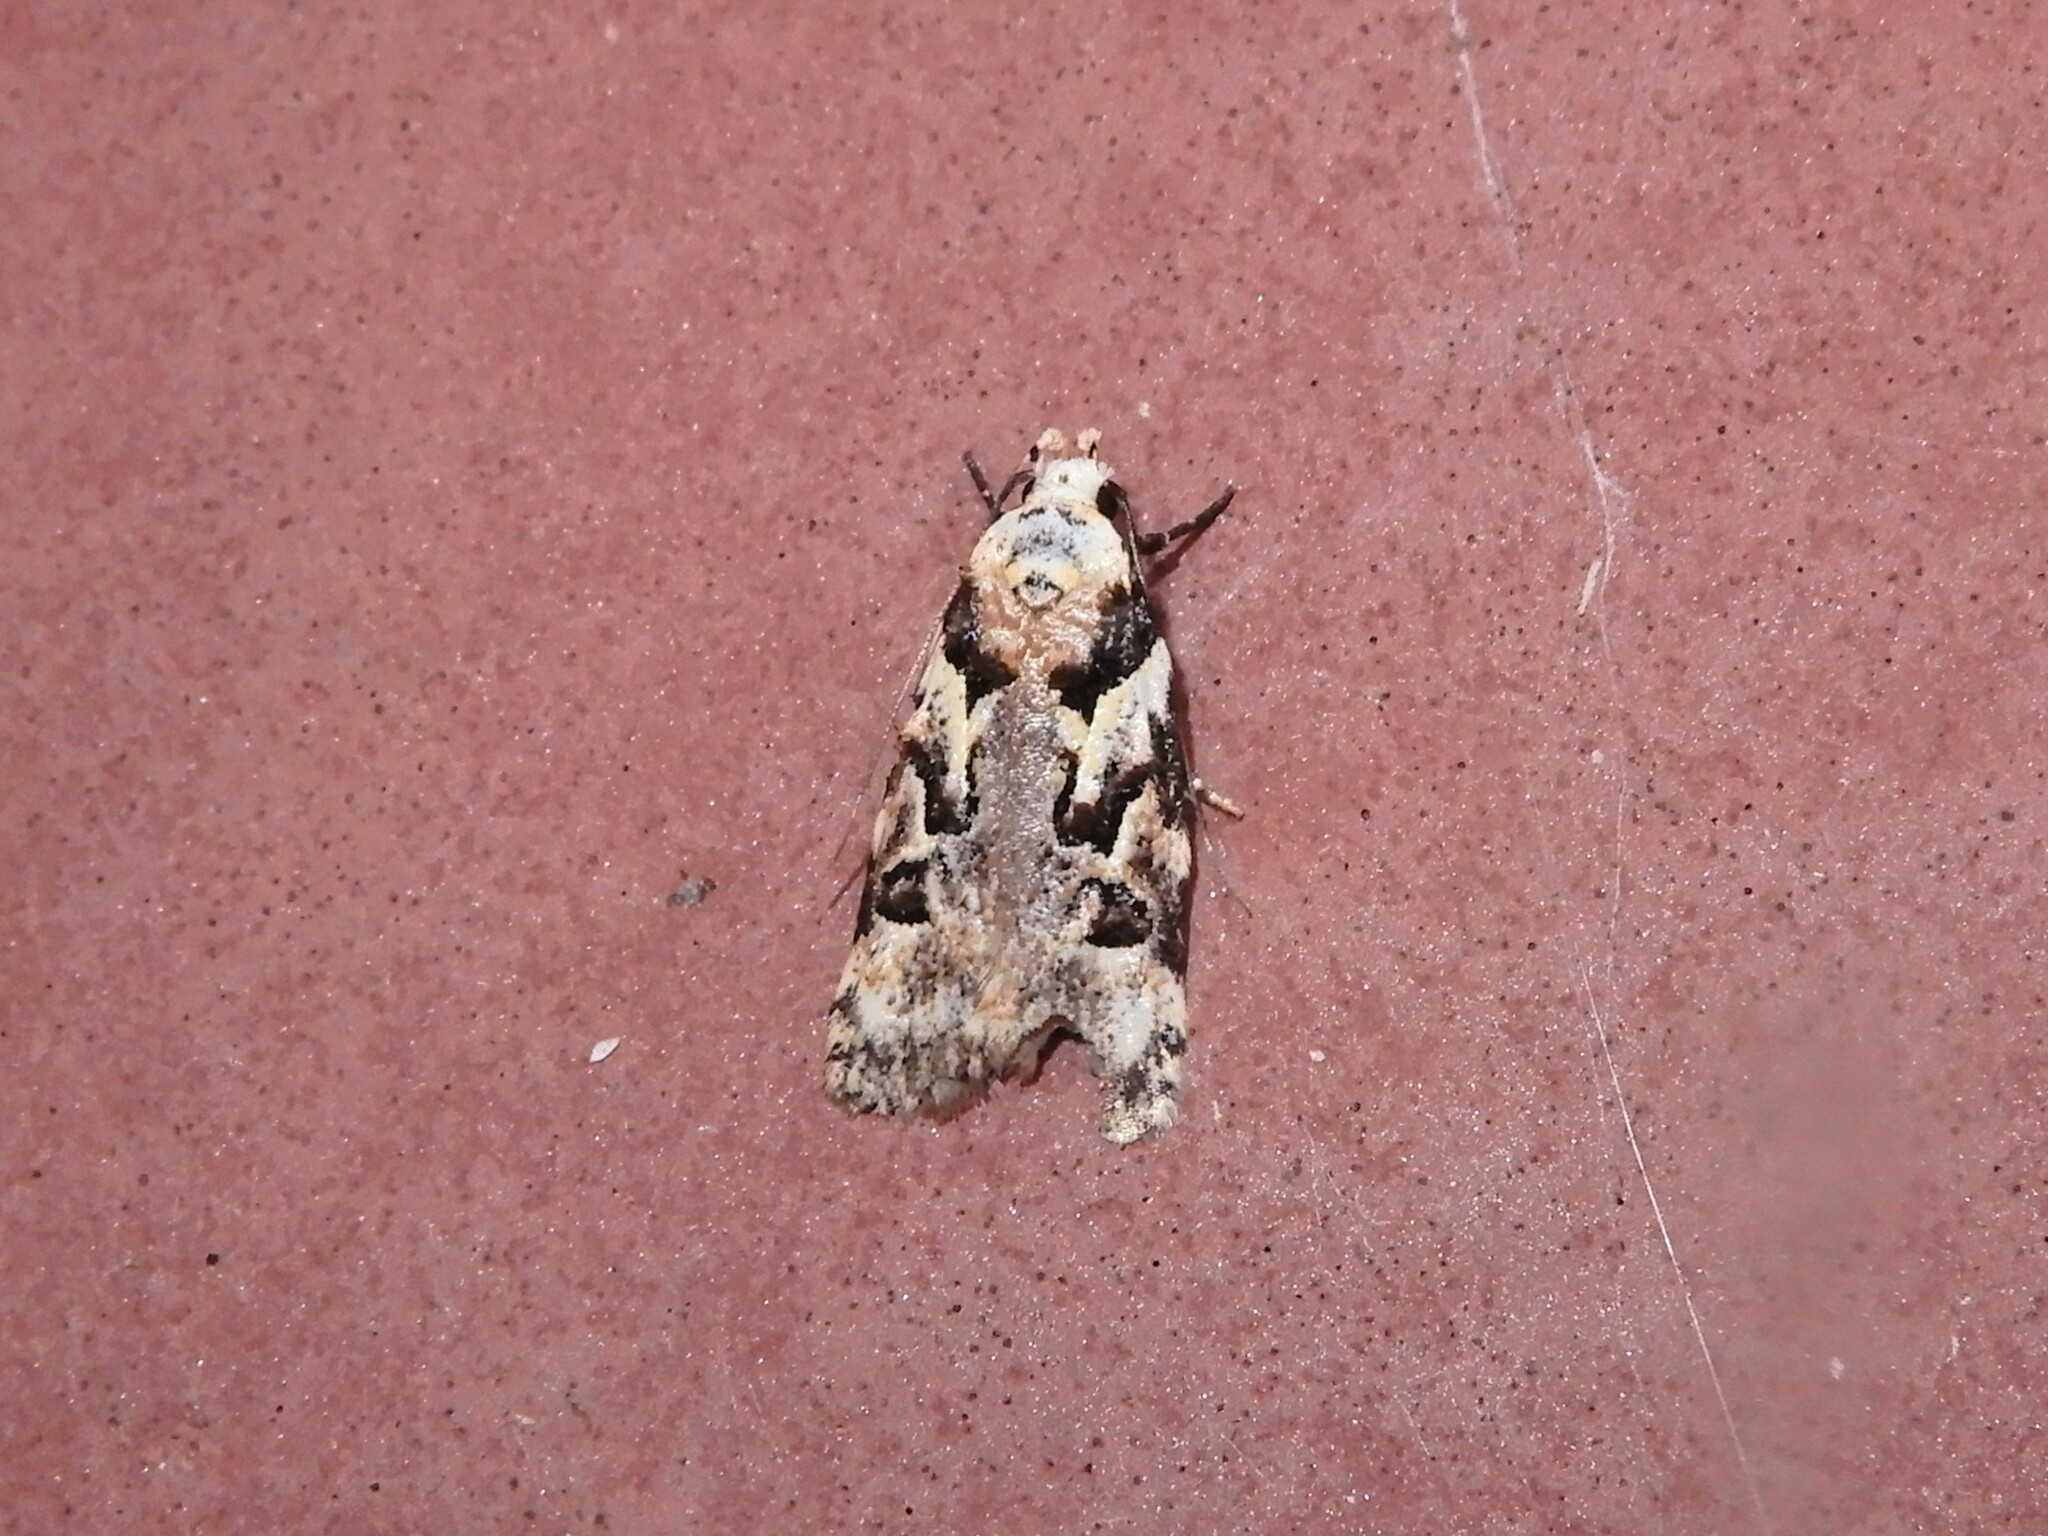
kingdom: Animalia
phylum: Arthropoda
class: Insecta
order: Lepidoptera
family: Oecophoridae
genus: Izatha
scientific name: Izatha epiphanes
